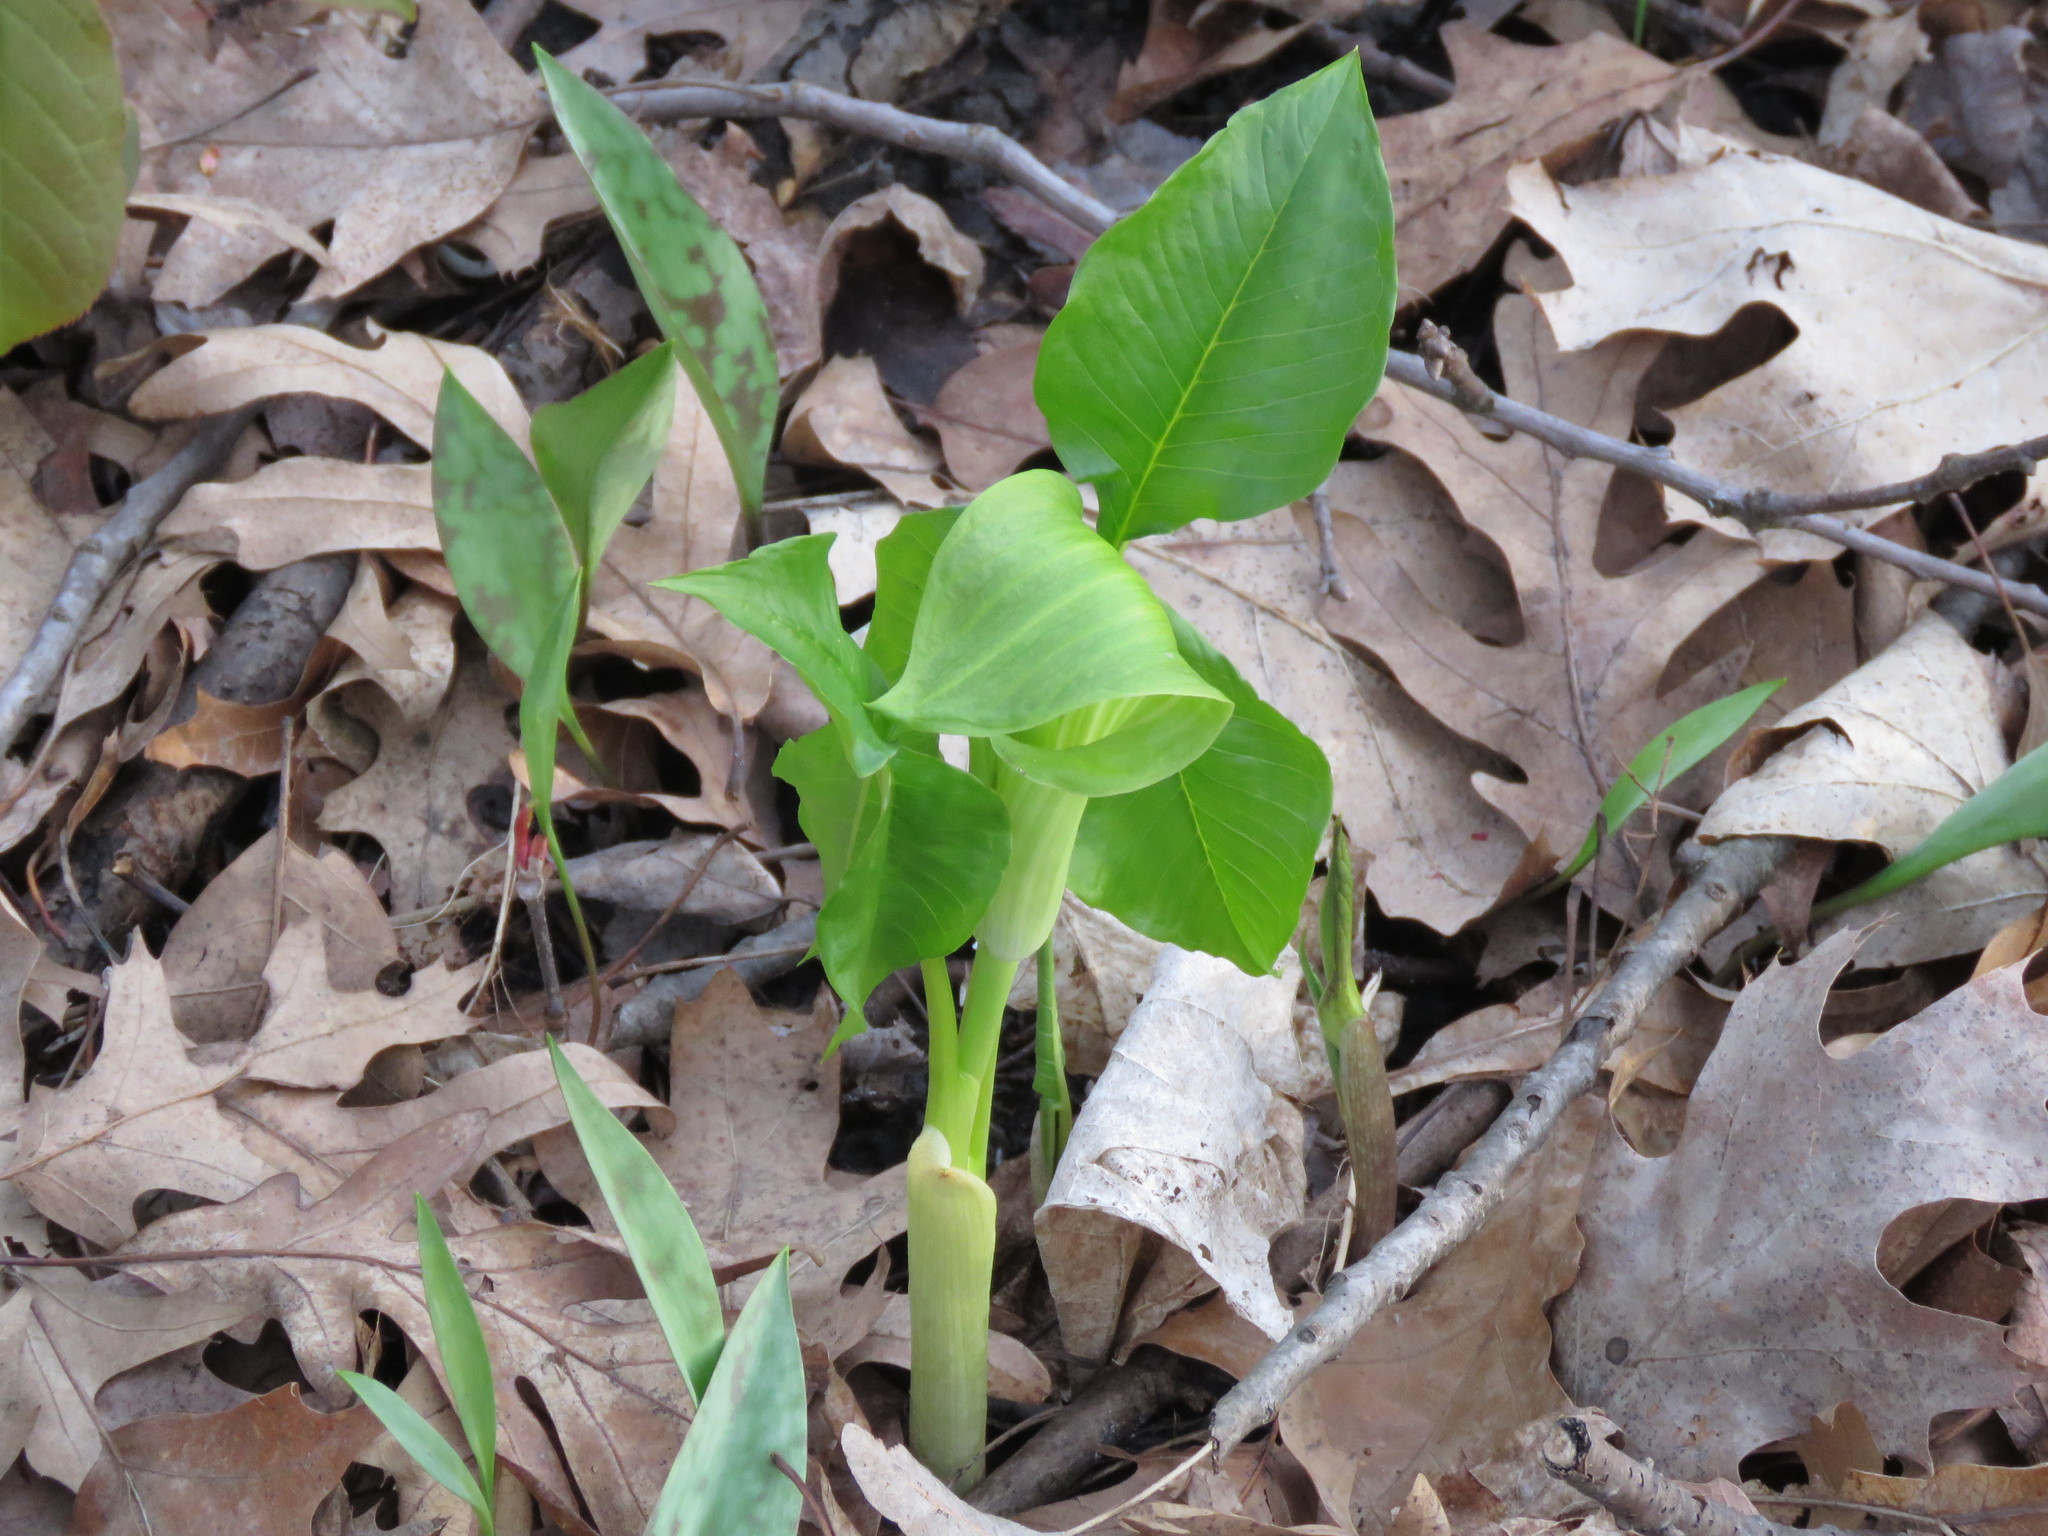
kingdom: Plantae
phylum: Tracheophyta
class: Liliopsida
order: Alismatales
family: Araceae
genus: Arisaema
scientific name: Arisaema triphyllum
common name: Jack-in-the-pulpit
